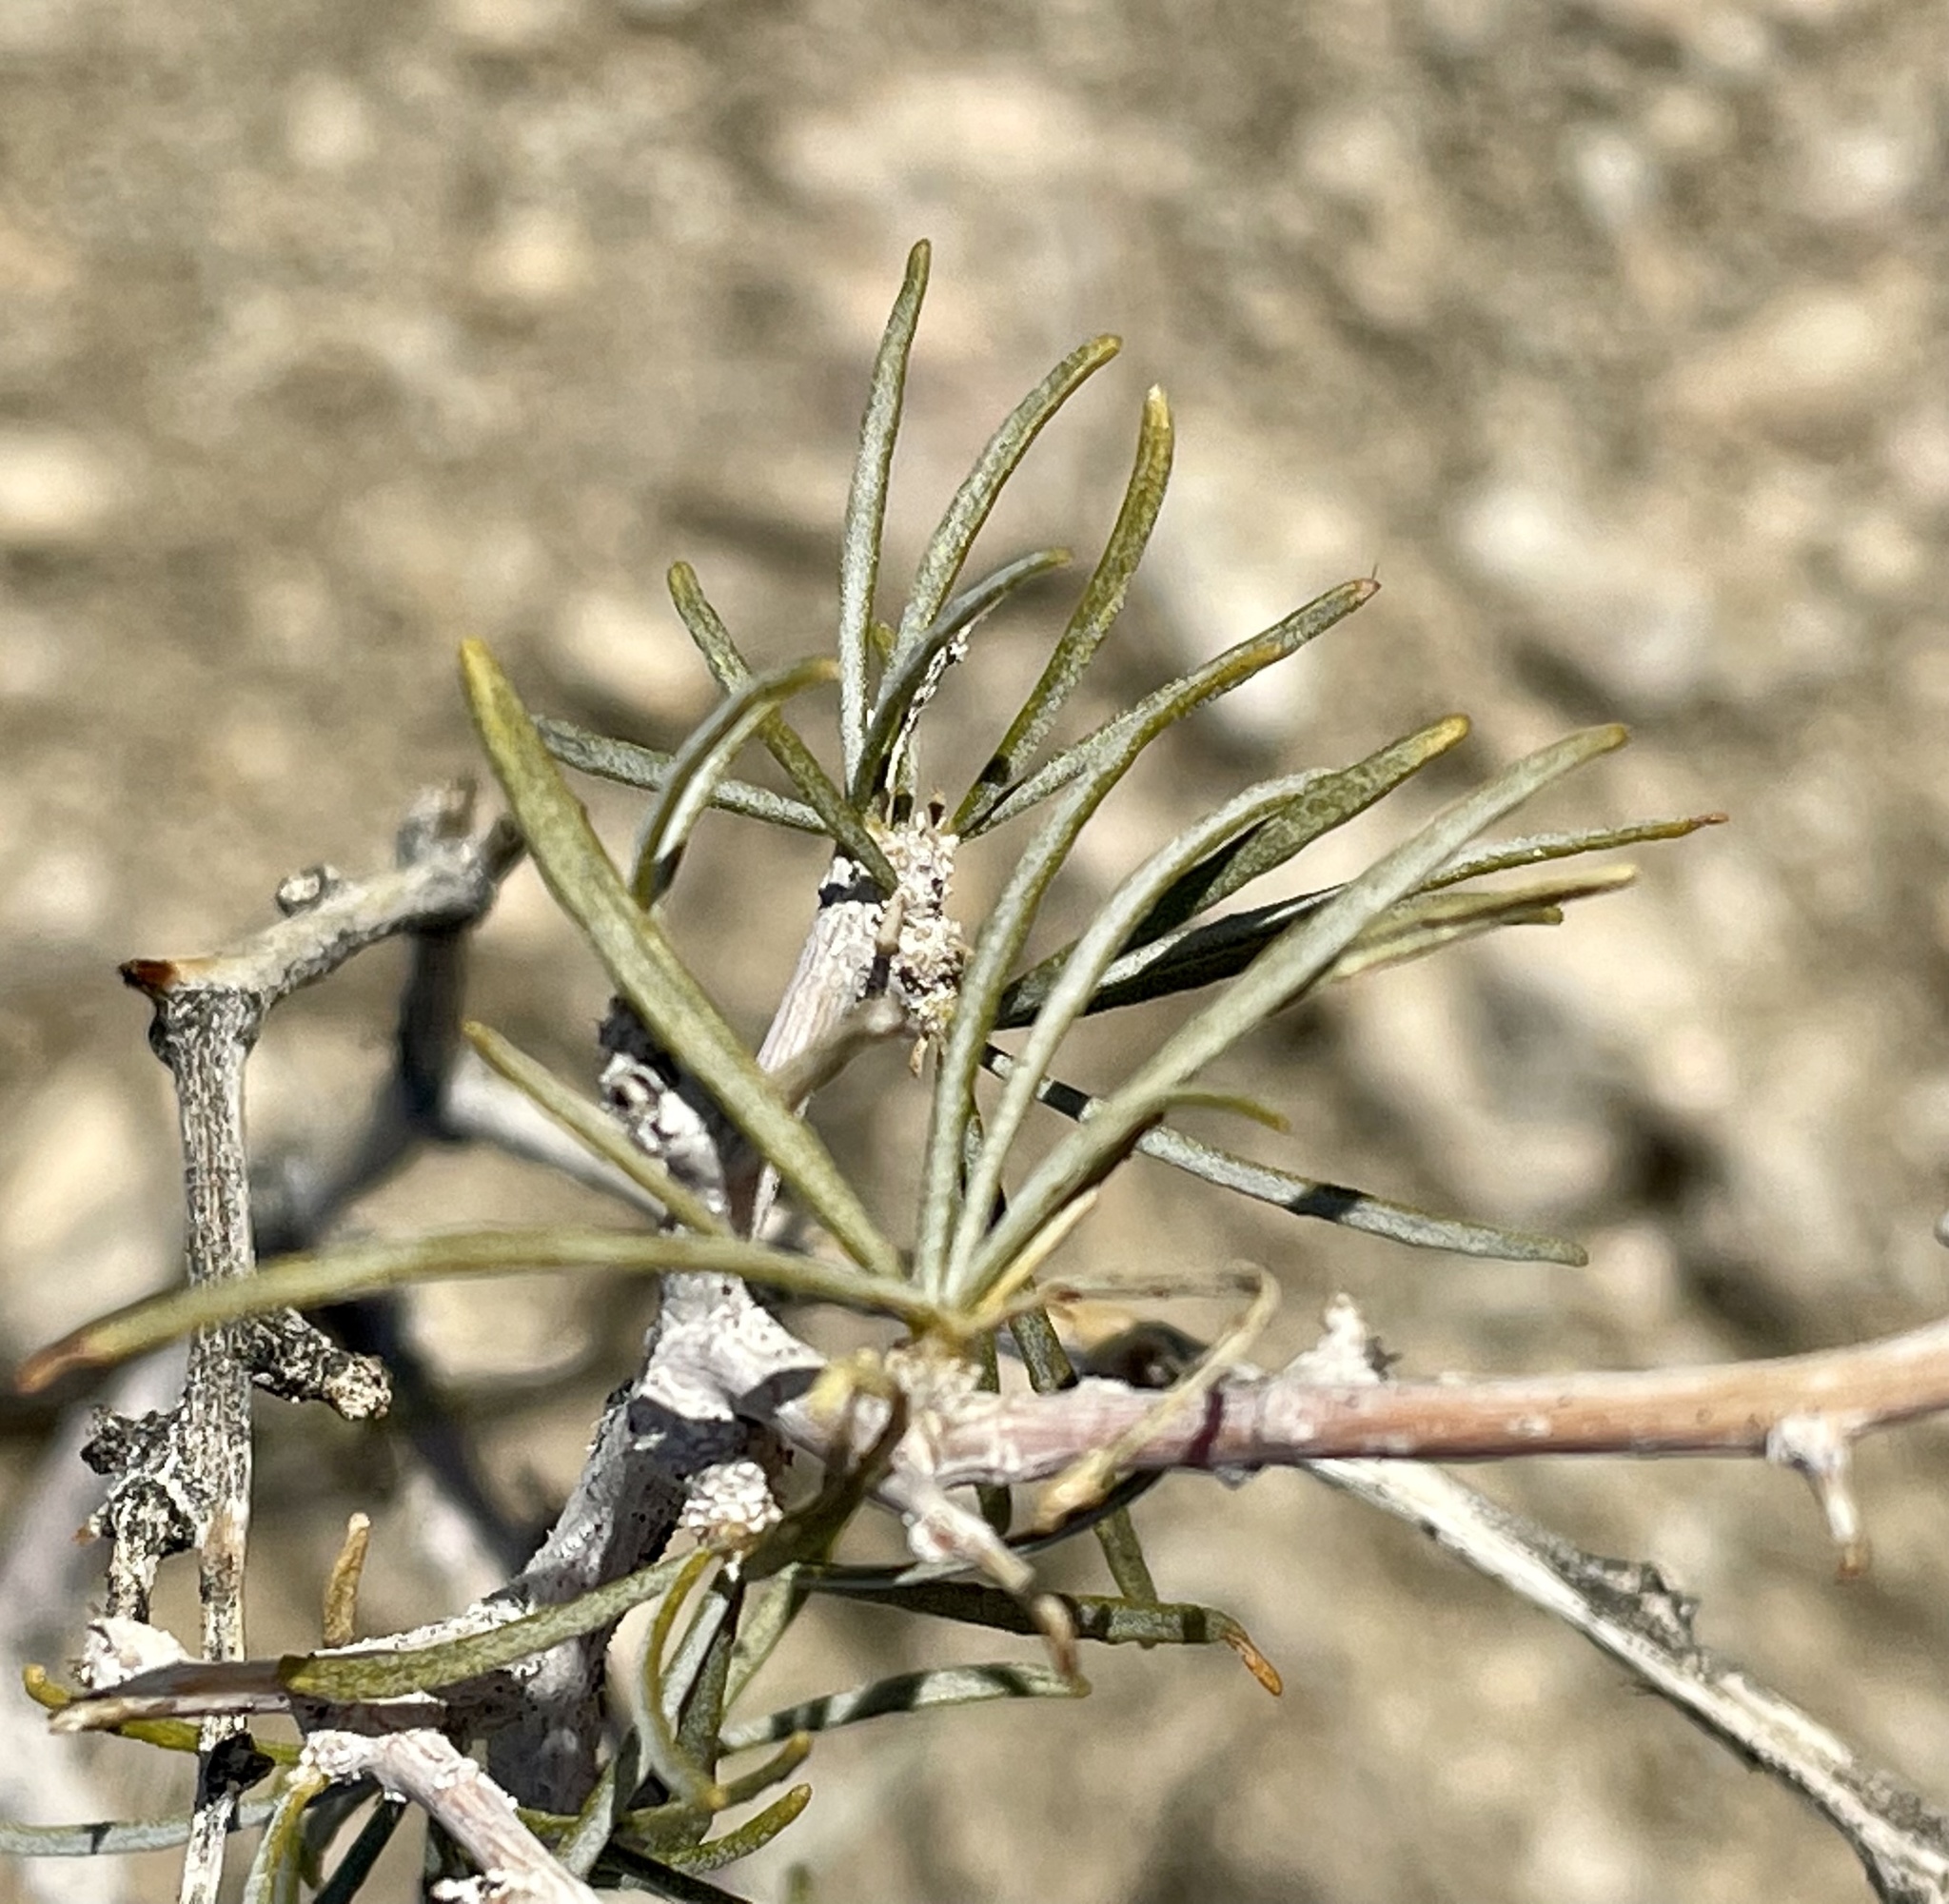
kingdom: Plantae
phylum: Tracheophyta
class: Magnoliopsida
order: Fabales
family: Fabaceae
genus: Psorothamnus
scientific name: Psorothamnus schottii
